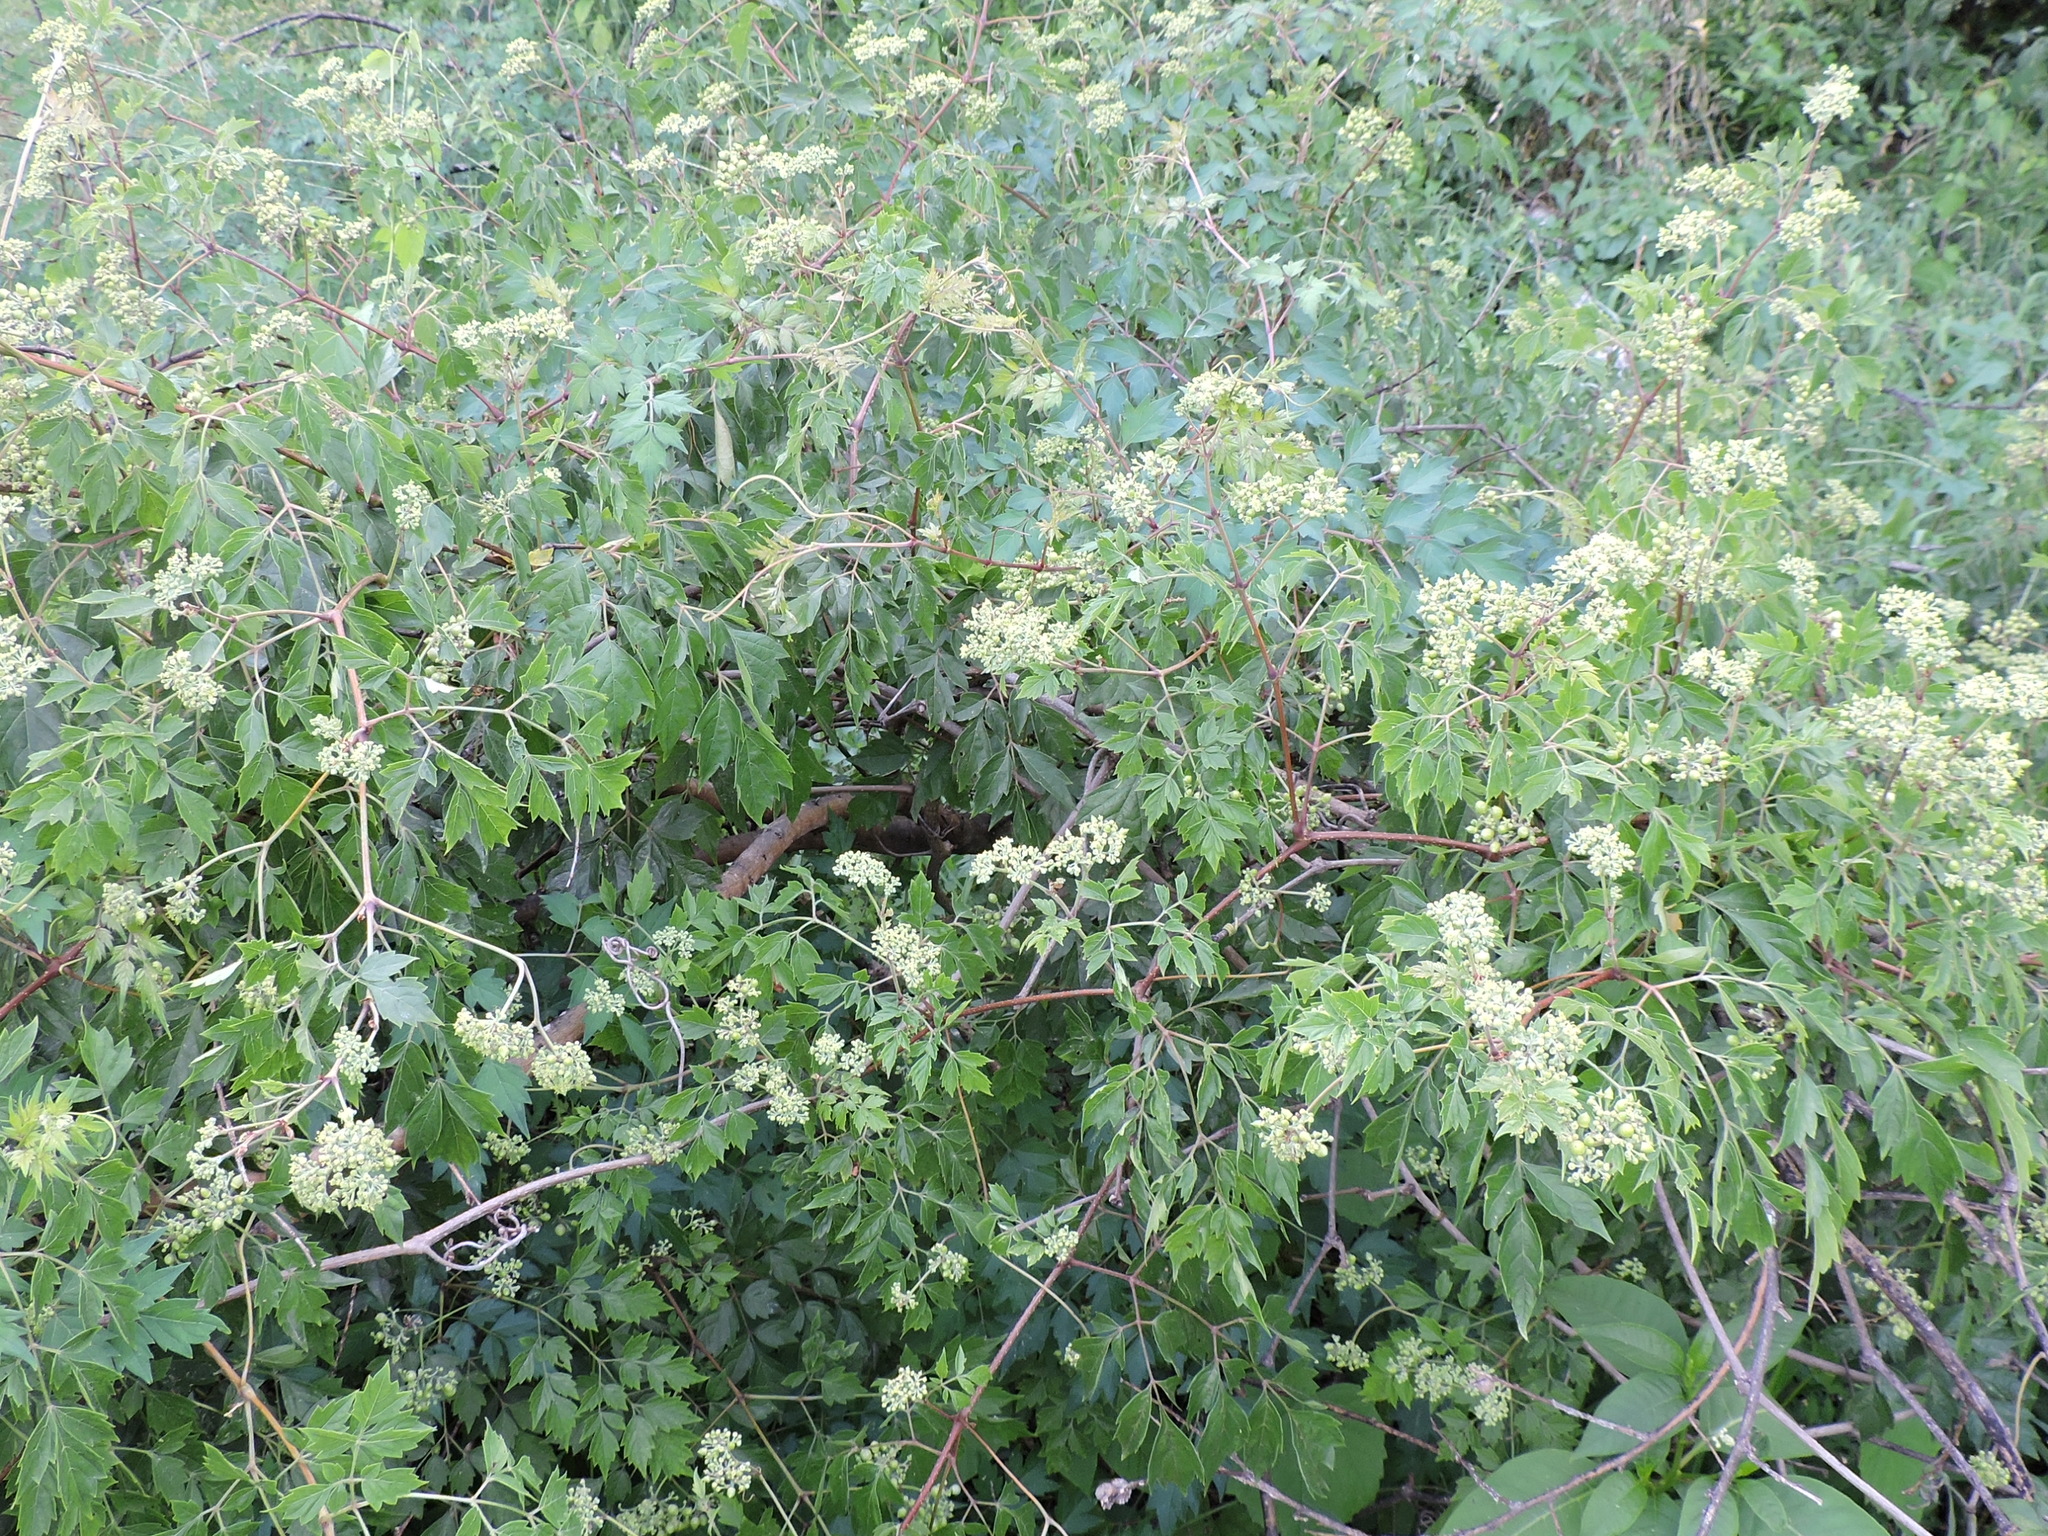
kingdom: Plantae
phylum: Tracheophyta
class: Magnoliopsida
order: Vitales
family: Vitaceae
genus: Nekemias
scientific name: Nekemias arborea
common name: Peppervine
